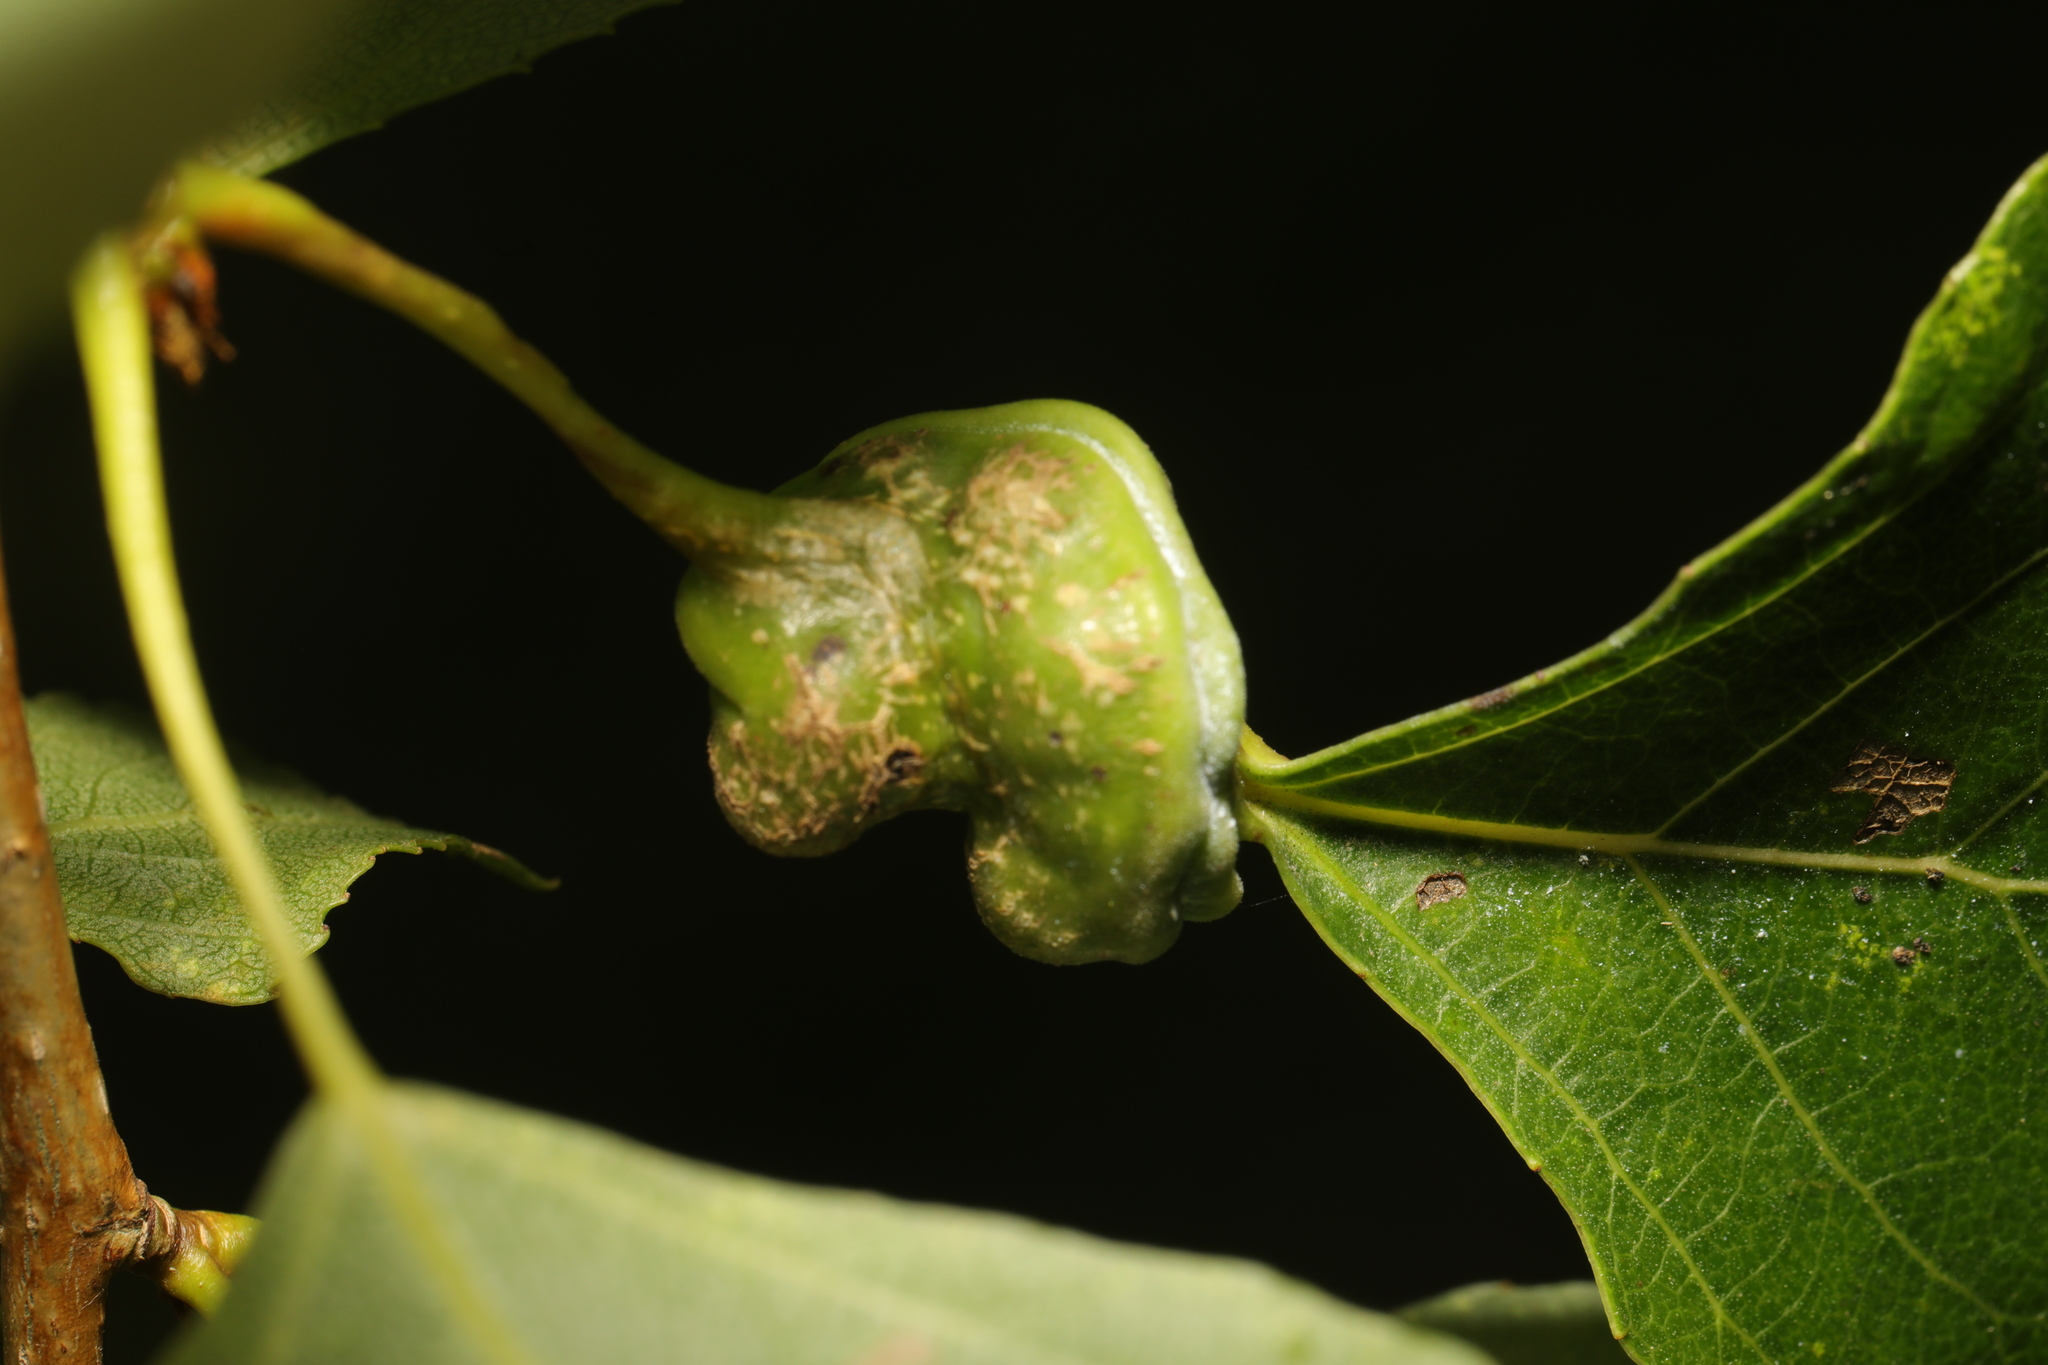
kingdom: Animalia
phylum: Arthropoda
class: Insecta
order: Hemiptera
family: Aphididae
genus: Pemphigus
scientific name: Pemphigus spyrothecae
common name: Aphid
